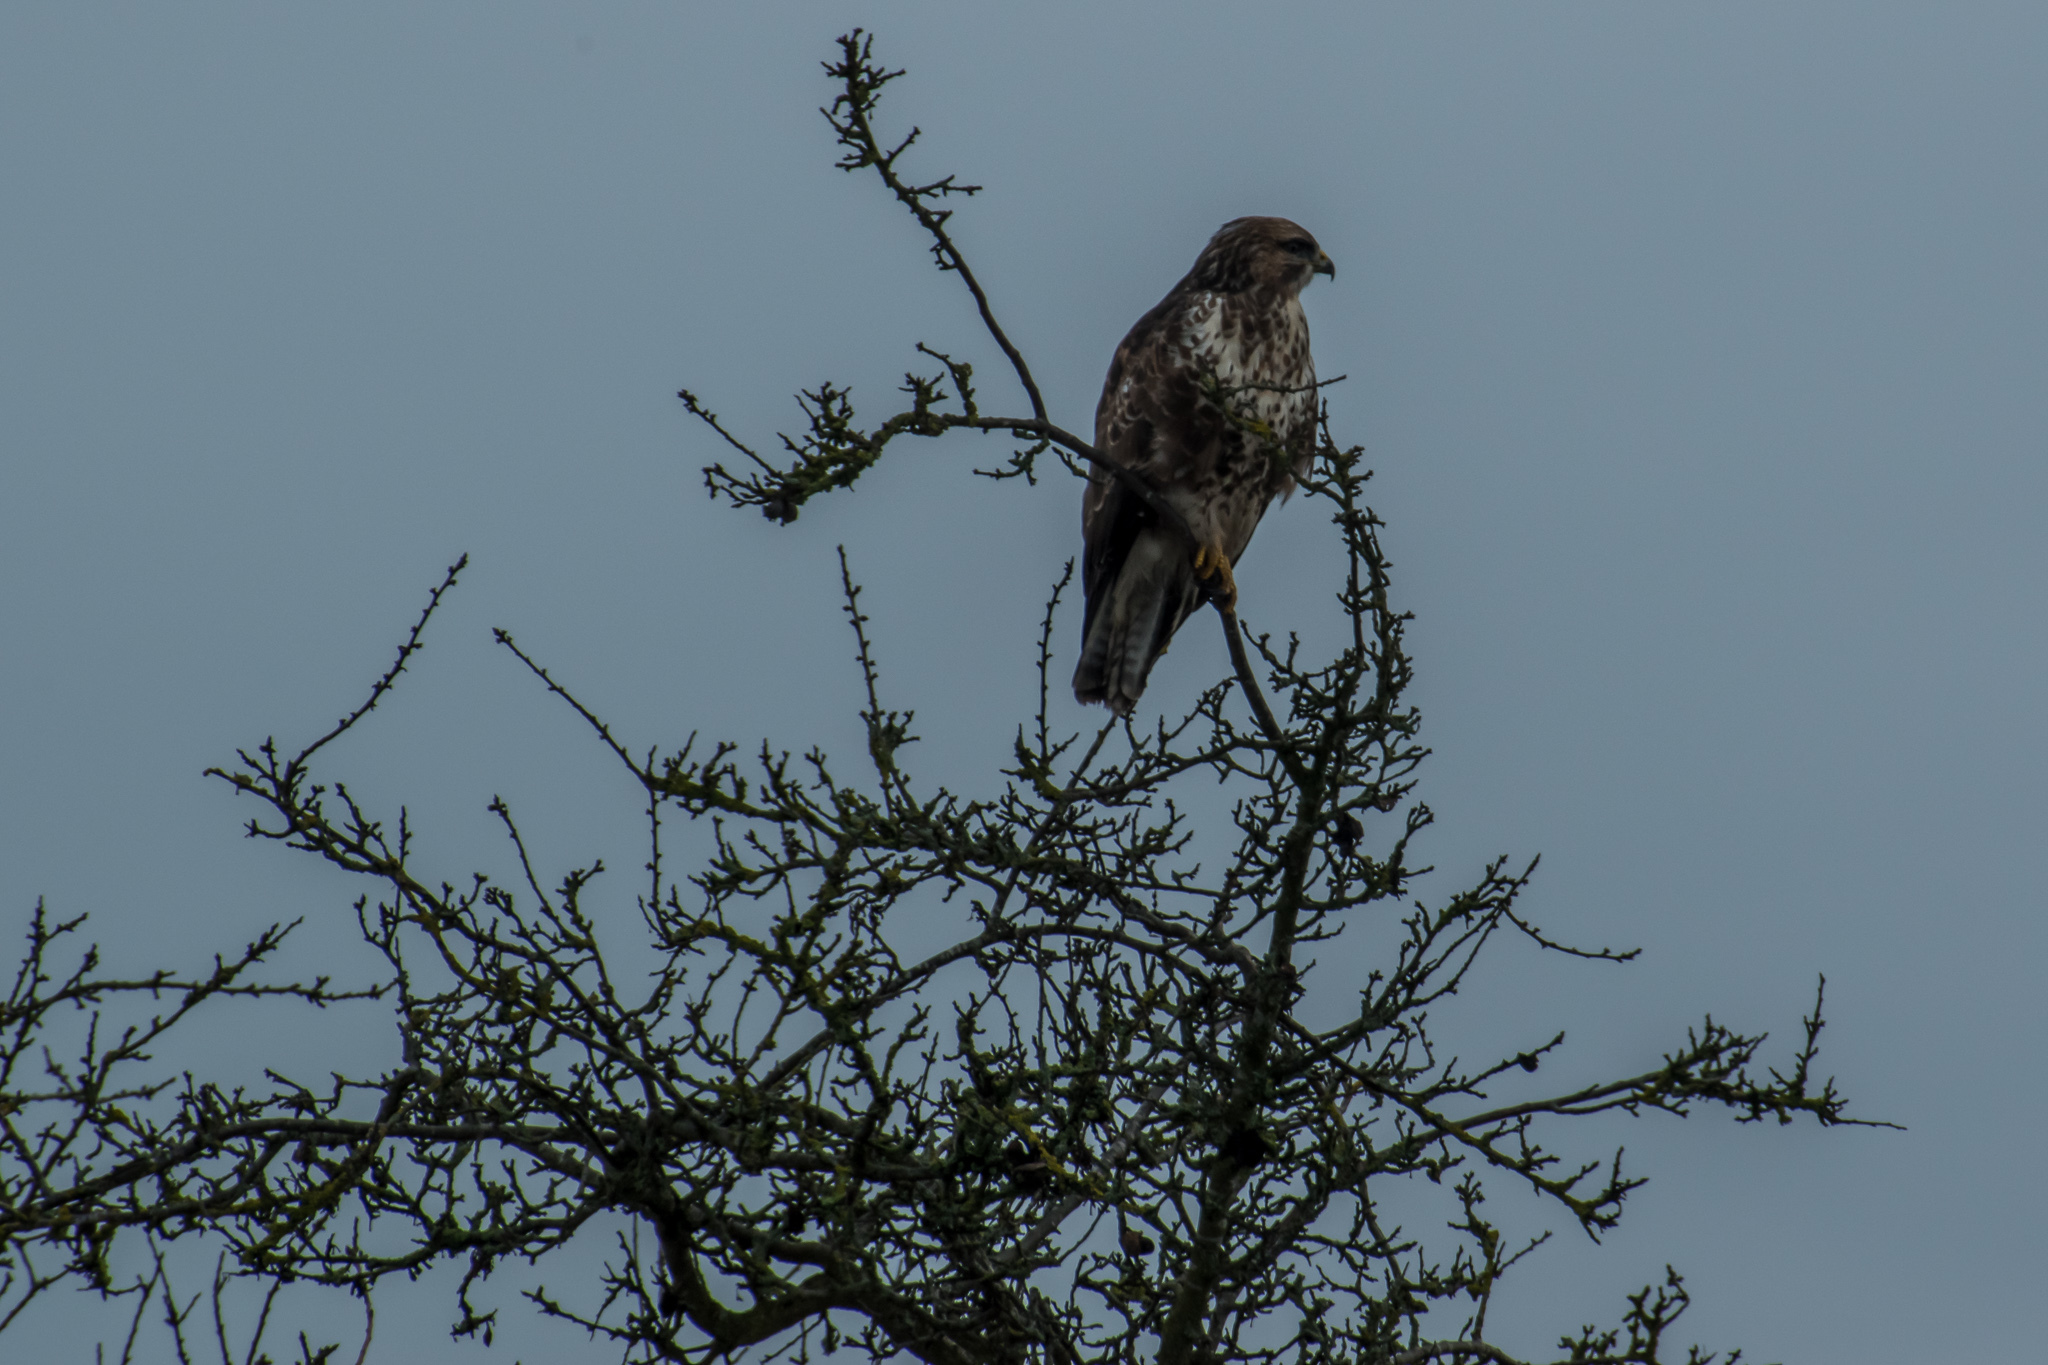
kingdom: Animalia
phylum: Chordata
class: Aves
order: Accipitriformes
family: Accipitridae
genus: Buteo
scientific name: Buteo buteo
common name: Common buzzard
